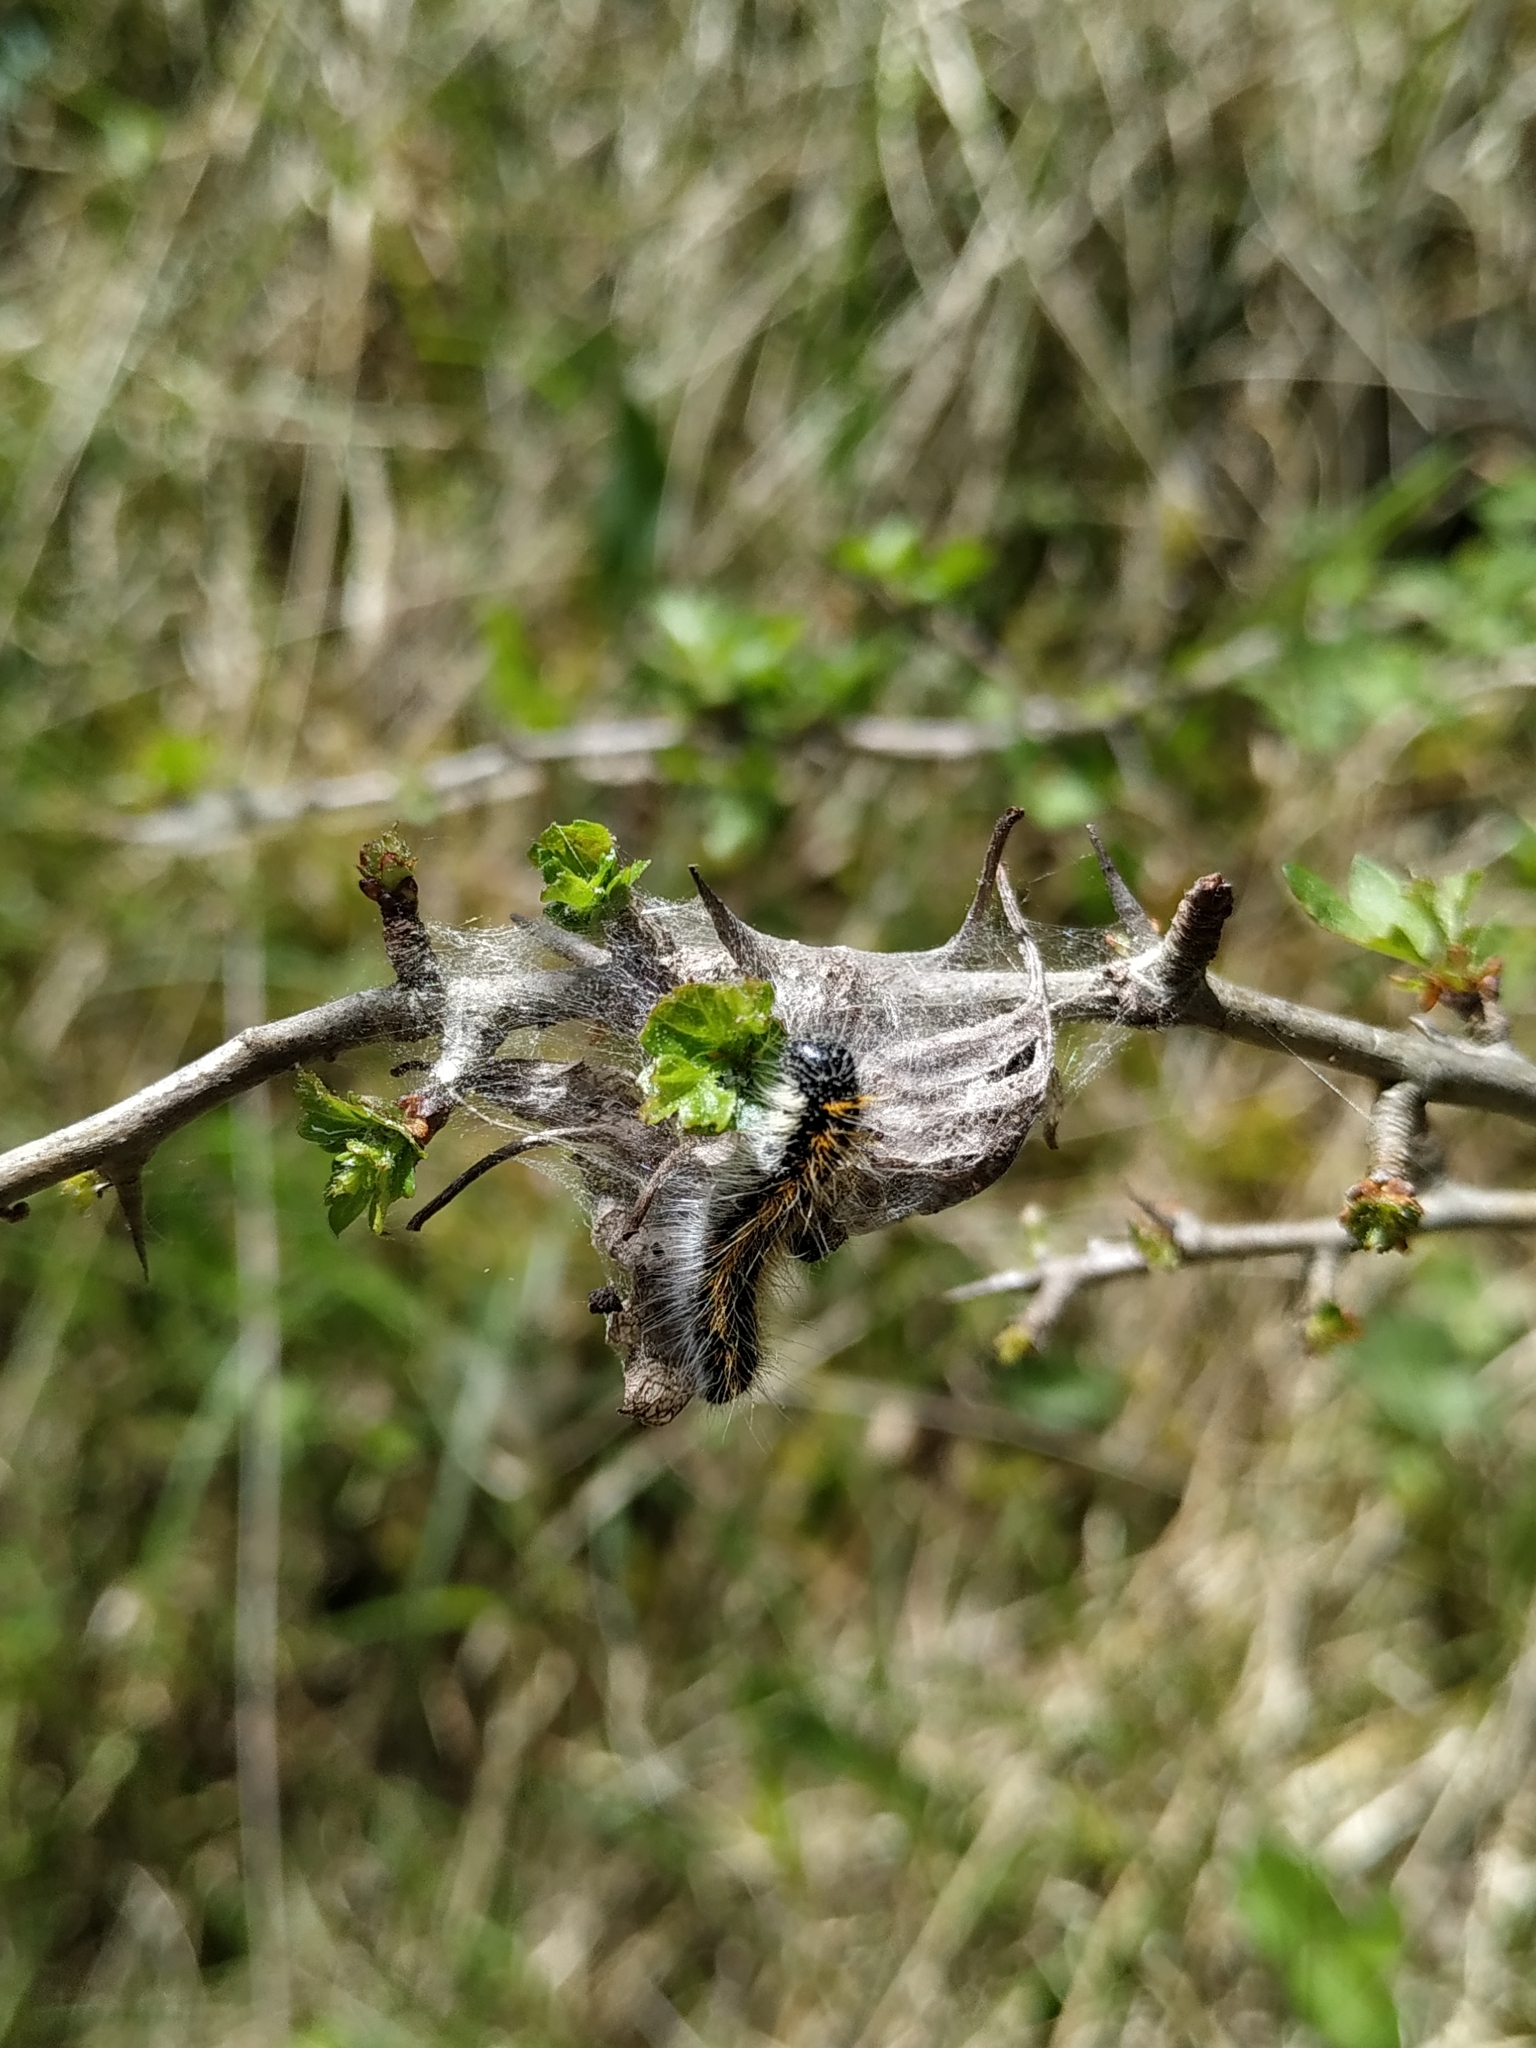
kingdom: Animalia
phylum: Arthropoda
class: Insecta
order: Lepidoptera
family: Pieridae
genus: Aporia
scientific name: Aporia crataegi
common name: Black-veined white
